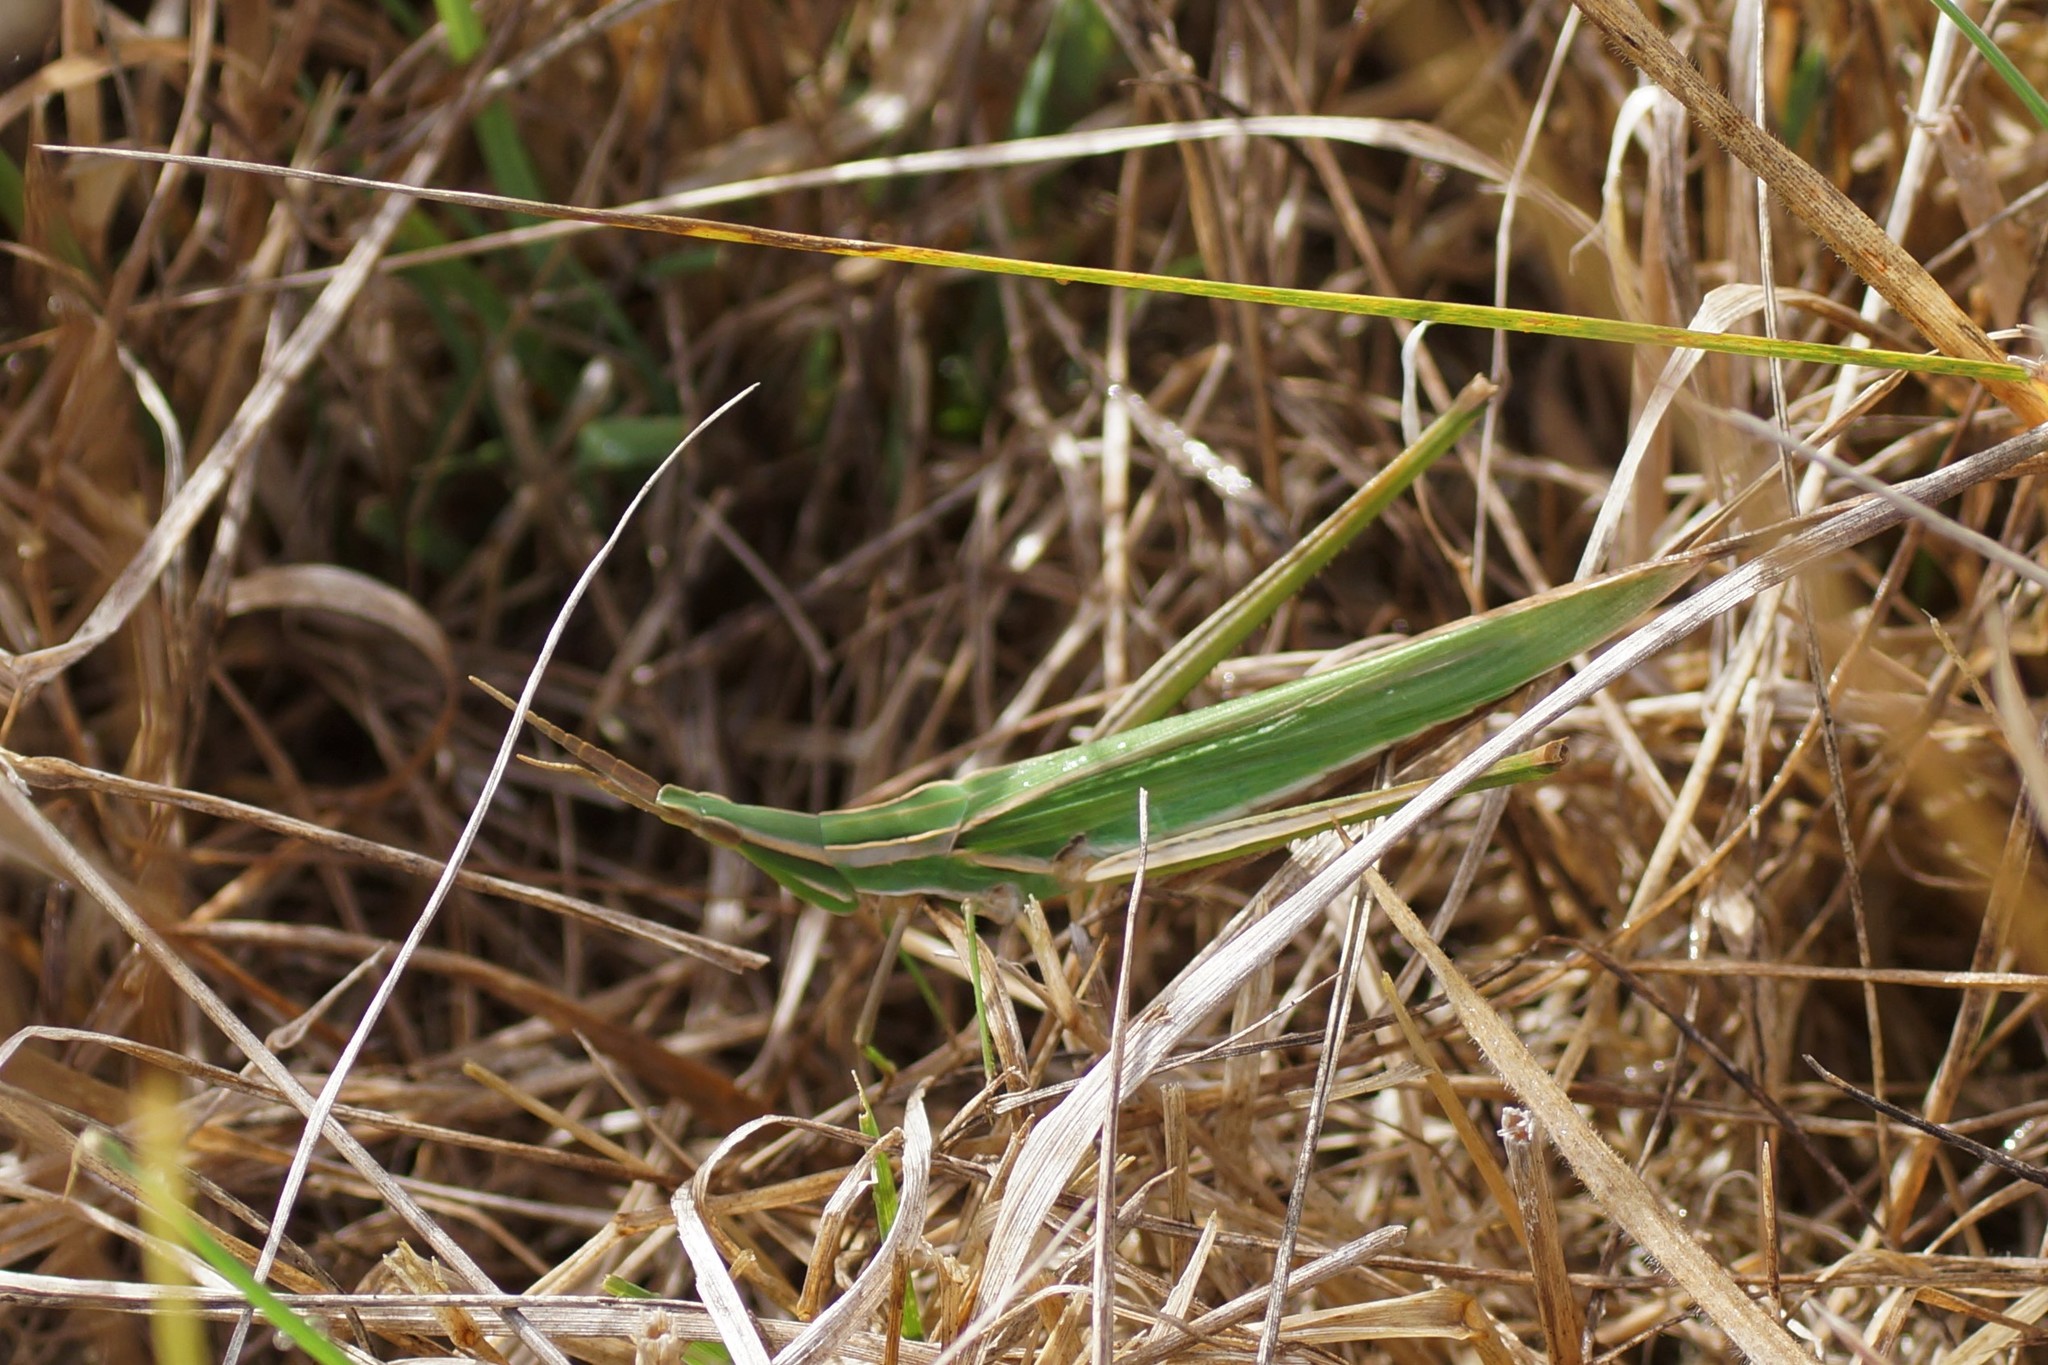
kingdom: Animalia
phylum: Arthropoda
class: Insecta
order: Orthoptera
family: Acrididae
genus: Acrida
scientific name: Acrida conica
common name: Giant green slantface
